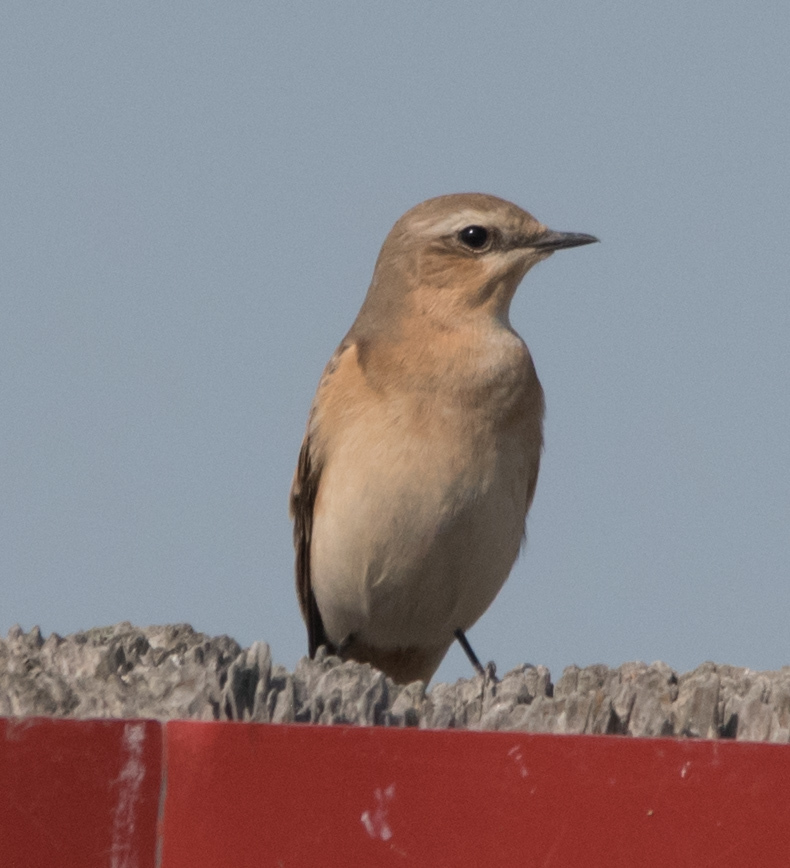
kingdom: Animalia
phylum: Chordata
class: Aves
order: Passeriformes
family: Muscicapidae
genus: Oenanthe
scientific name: Oenanthe oenanthe
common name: Northern wheatear
